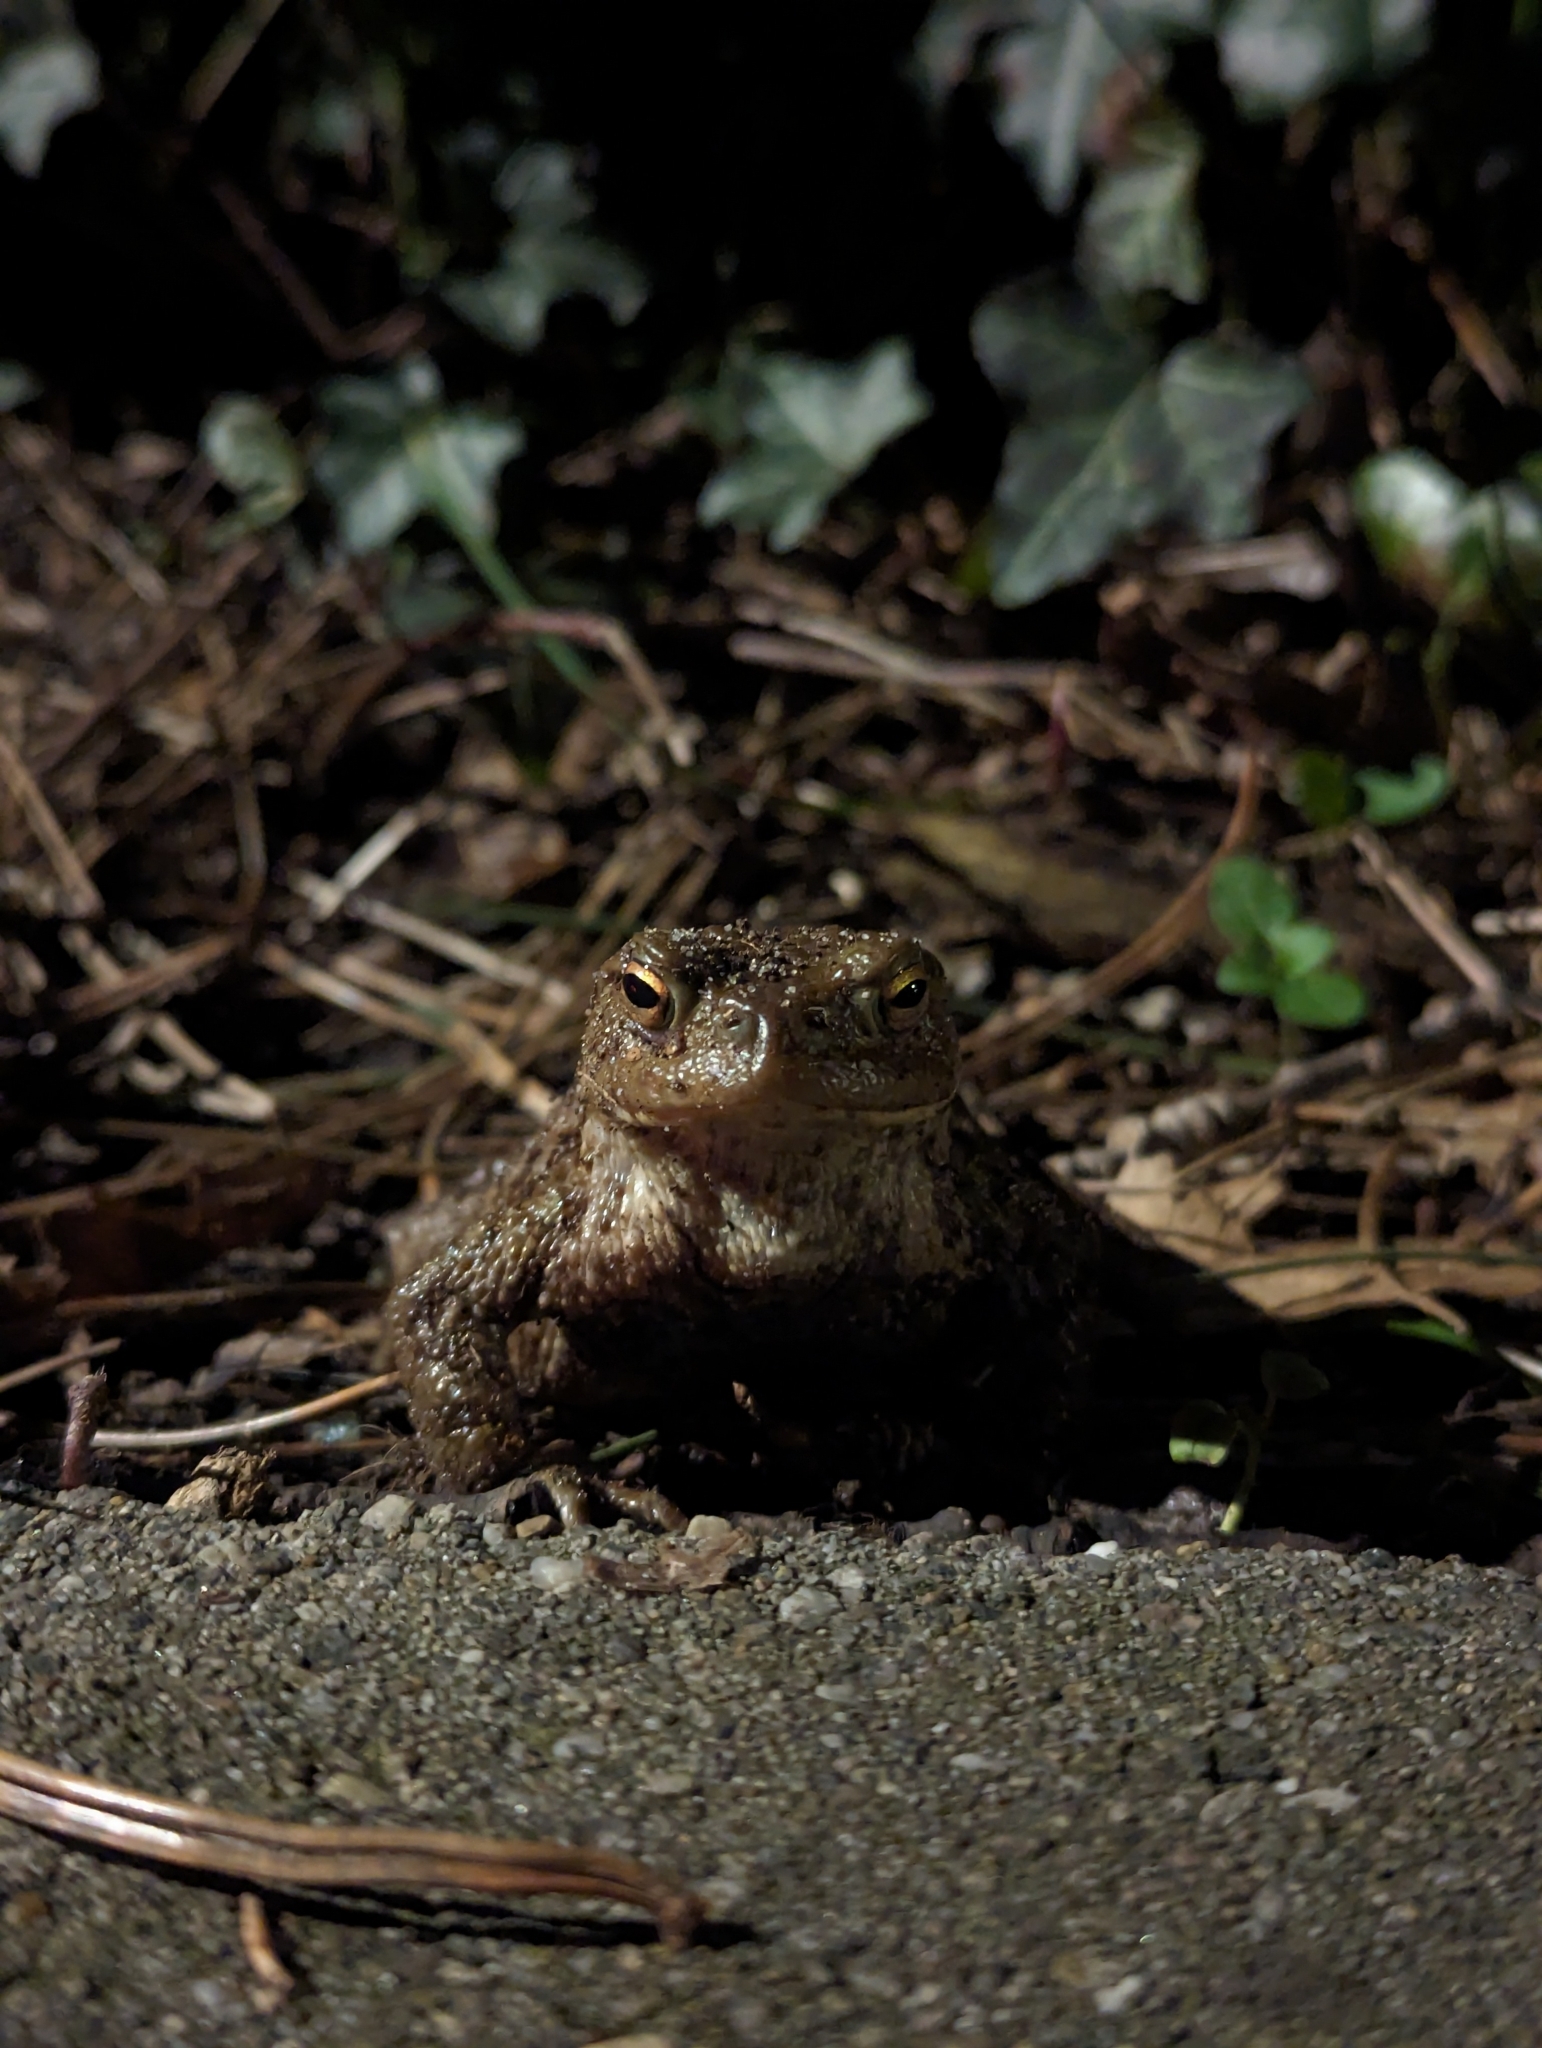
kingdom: Animalia
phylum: Chordata
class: Amphibia
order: Anura
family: Bufonidae
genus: Bufo
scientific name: Bufo bufo
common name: Common toad
